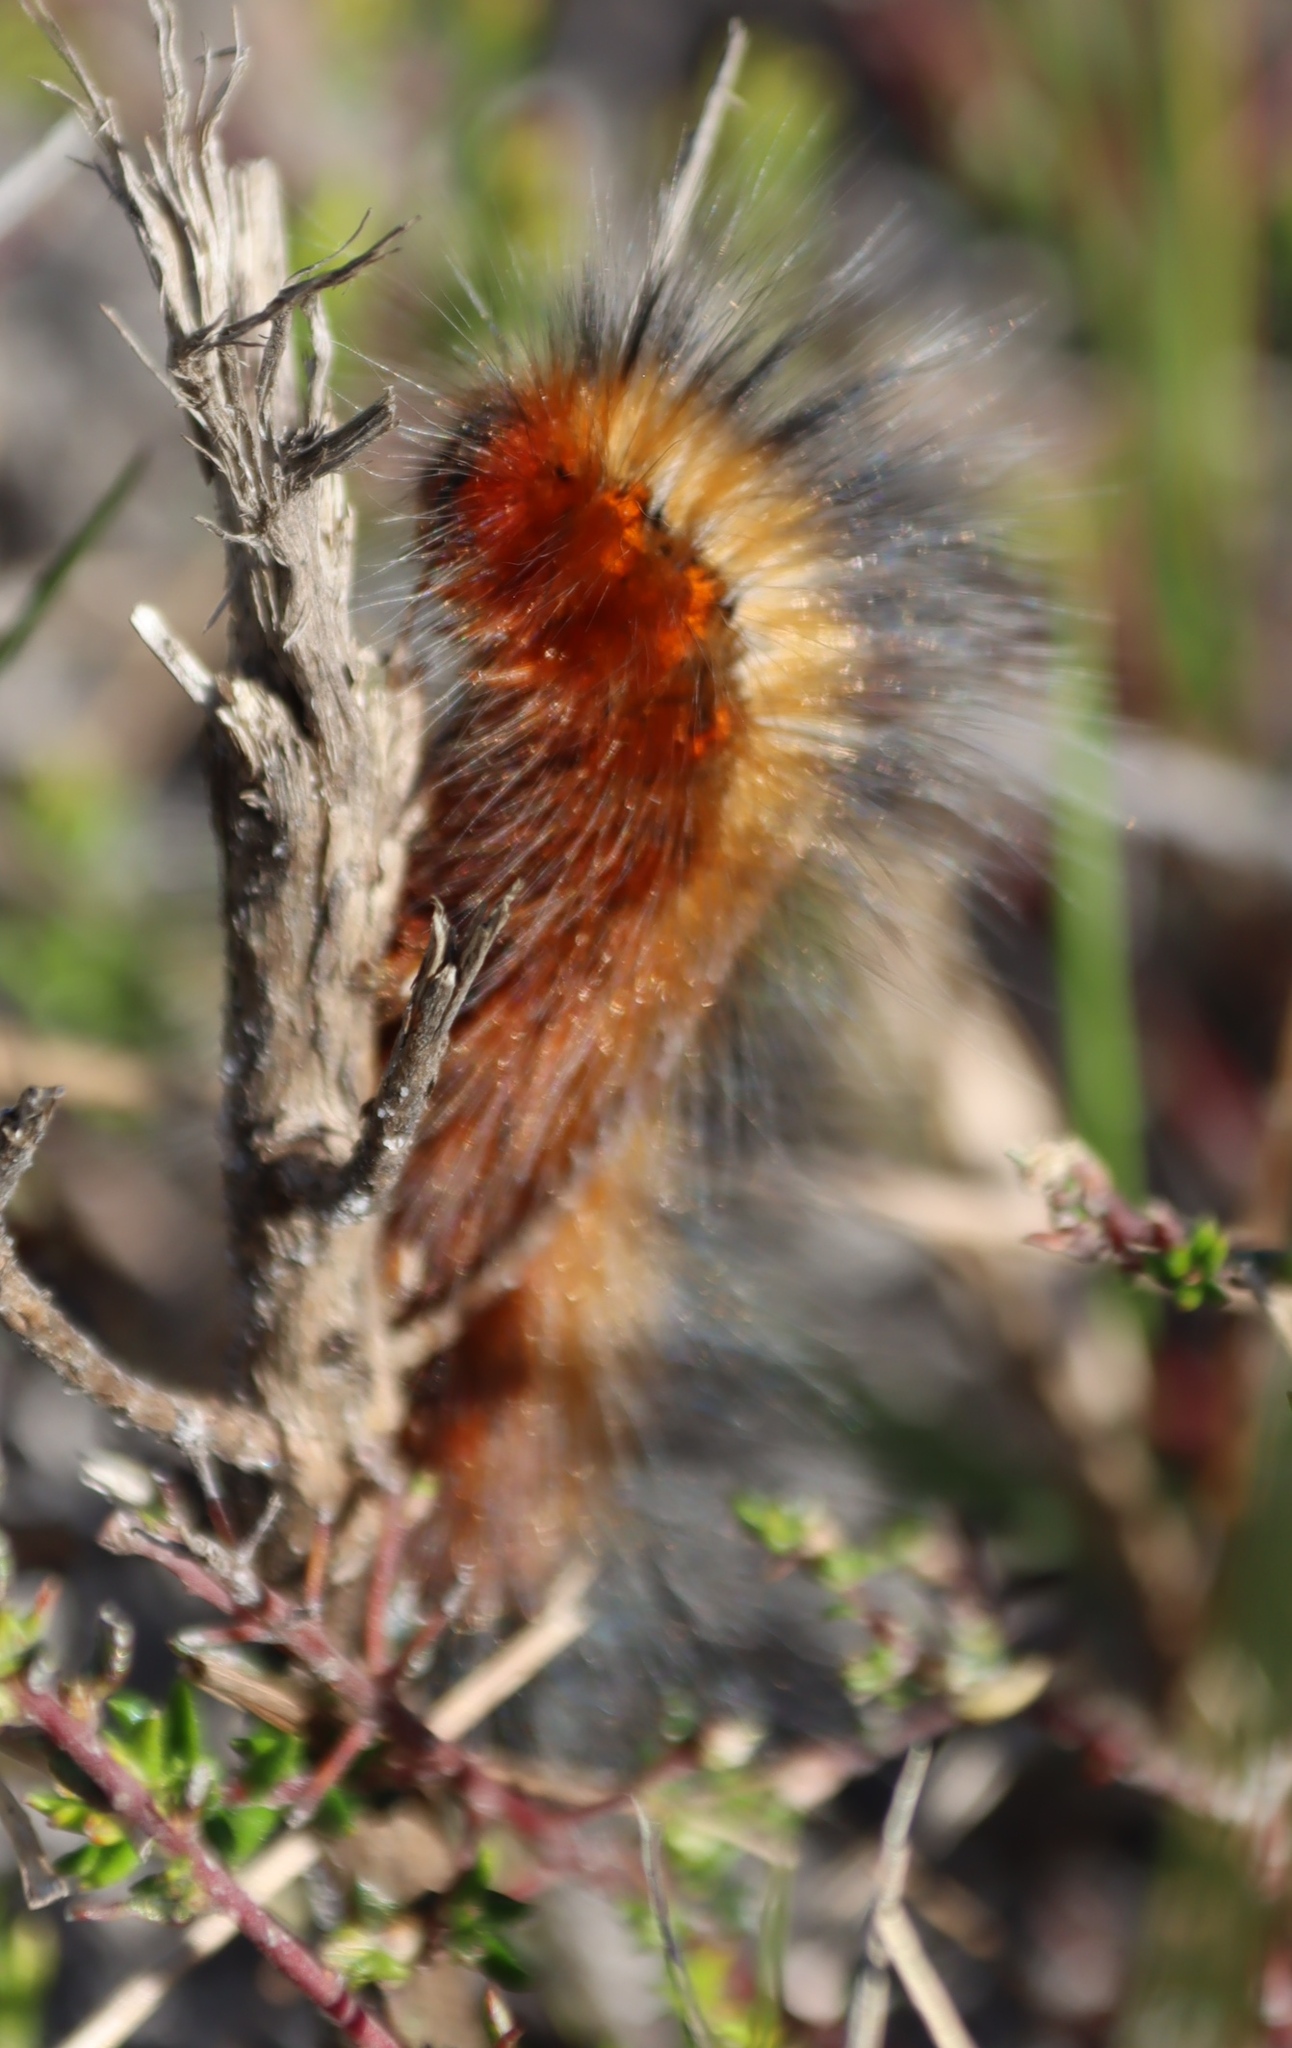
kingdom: Animalia
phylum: Arthropoda
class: Insecta
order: Lepidoptera
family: Lasiocampidae
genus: Mesocelis
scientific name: Mesocelis monticola
